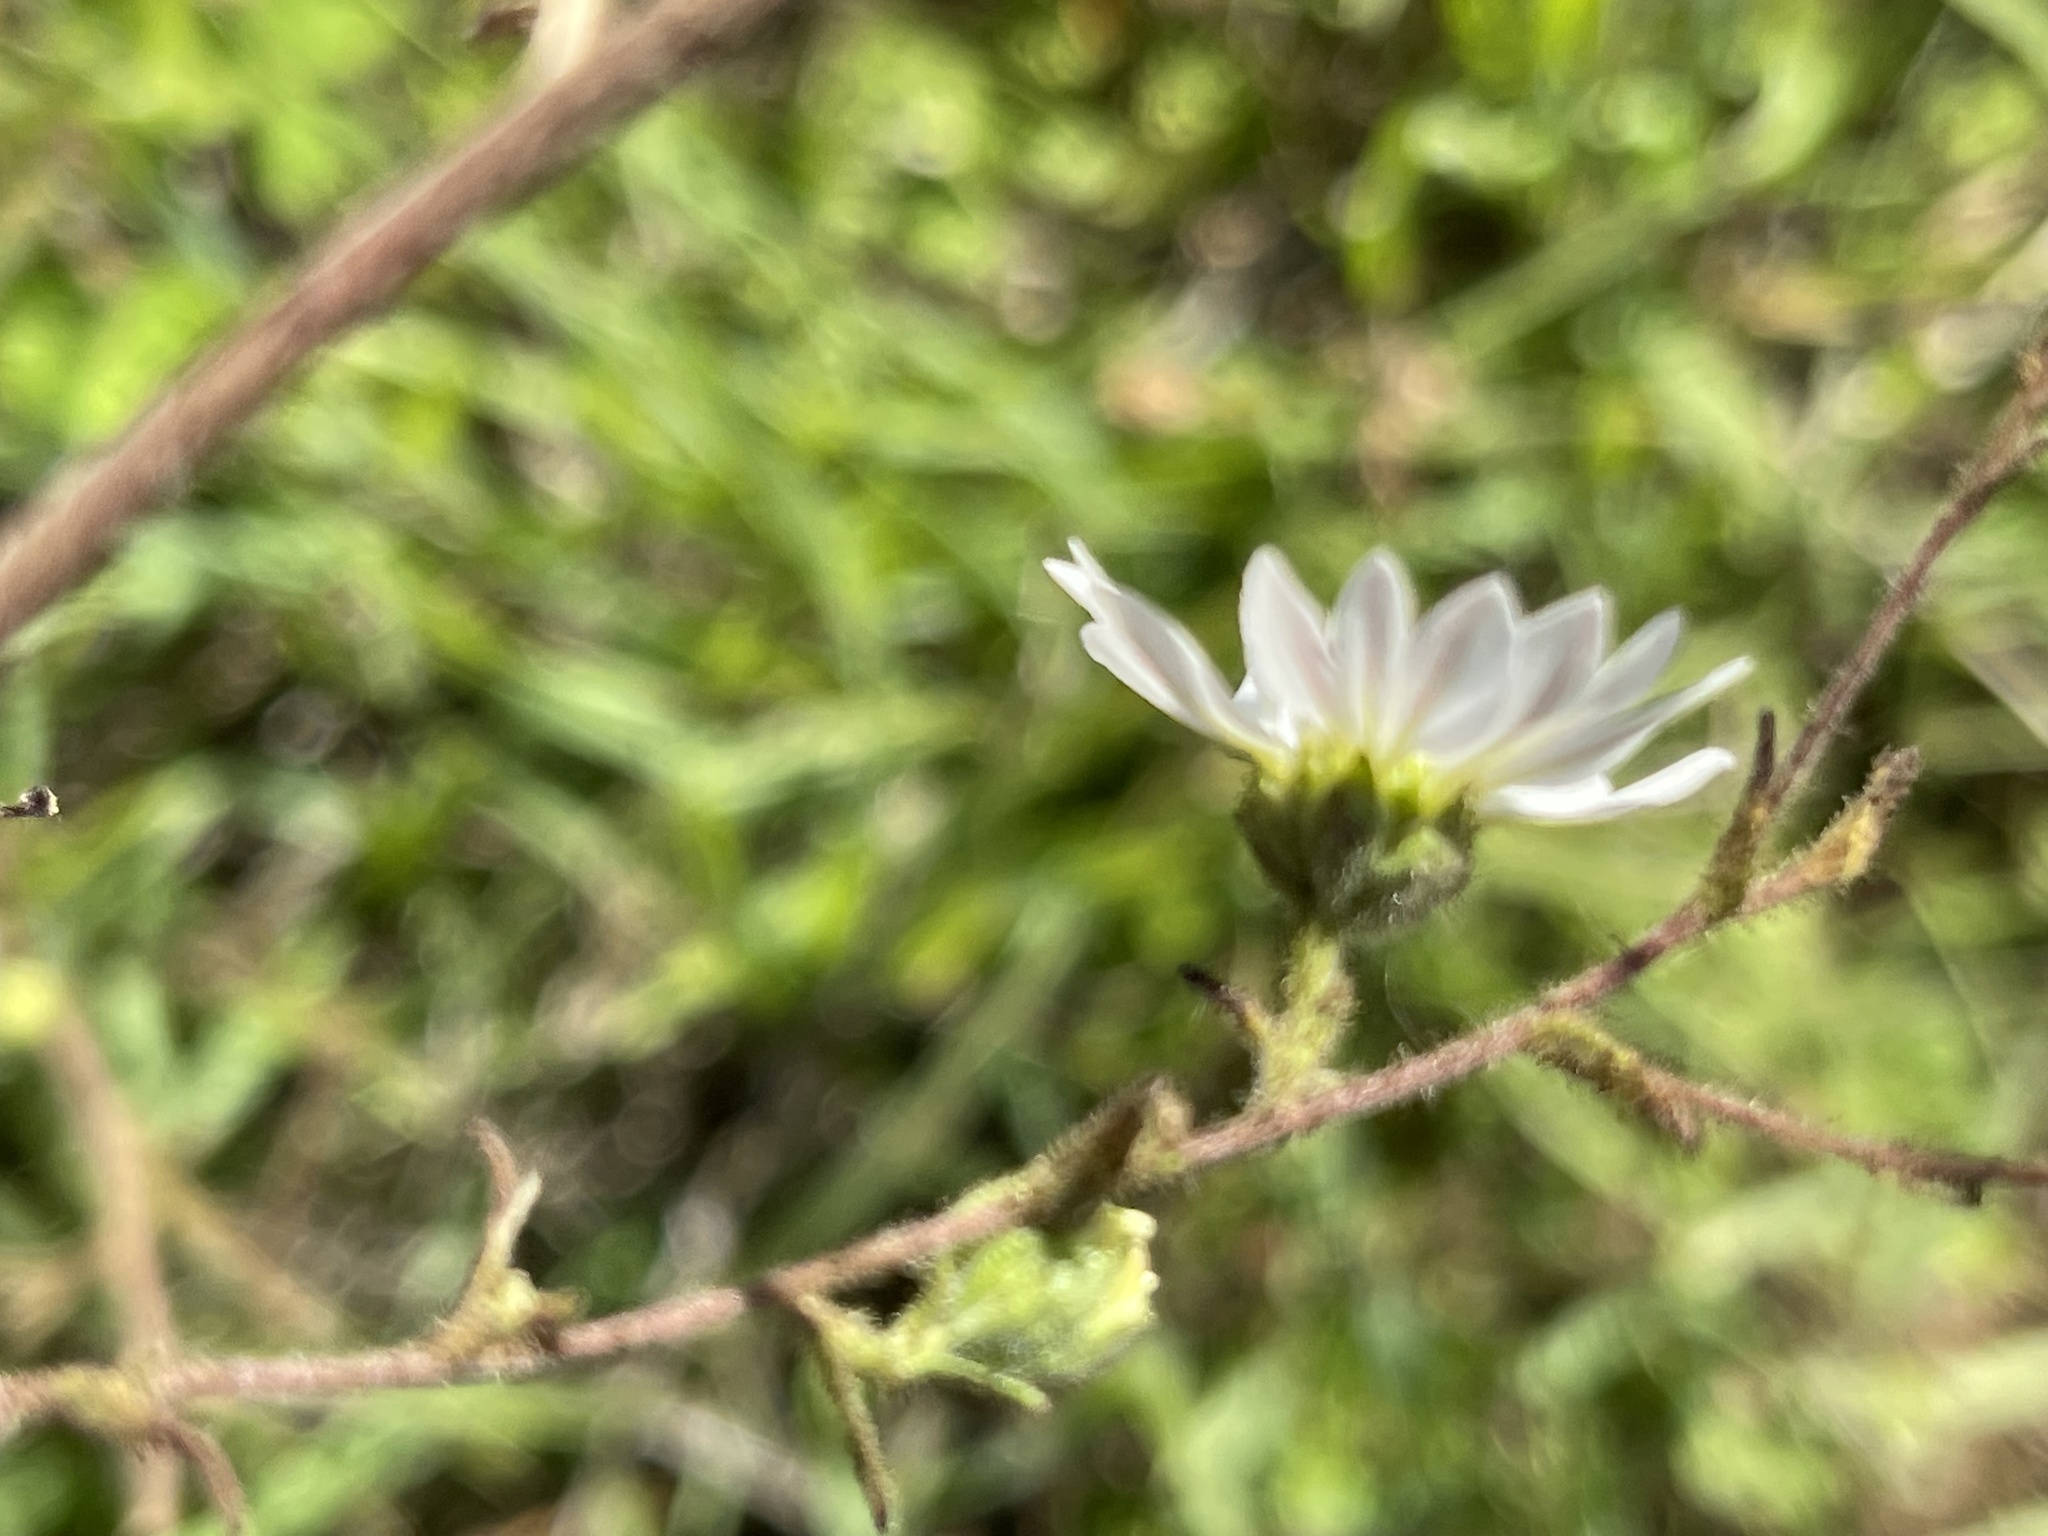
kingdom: Plantae
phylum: Tracheophyta
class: Magnoliopsida
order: Asterales
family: Asteraceae
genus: Hemizonia
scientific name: Hemizonia congesta
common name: Hayfield tarweed
